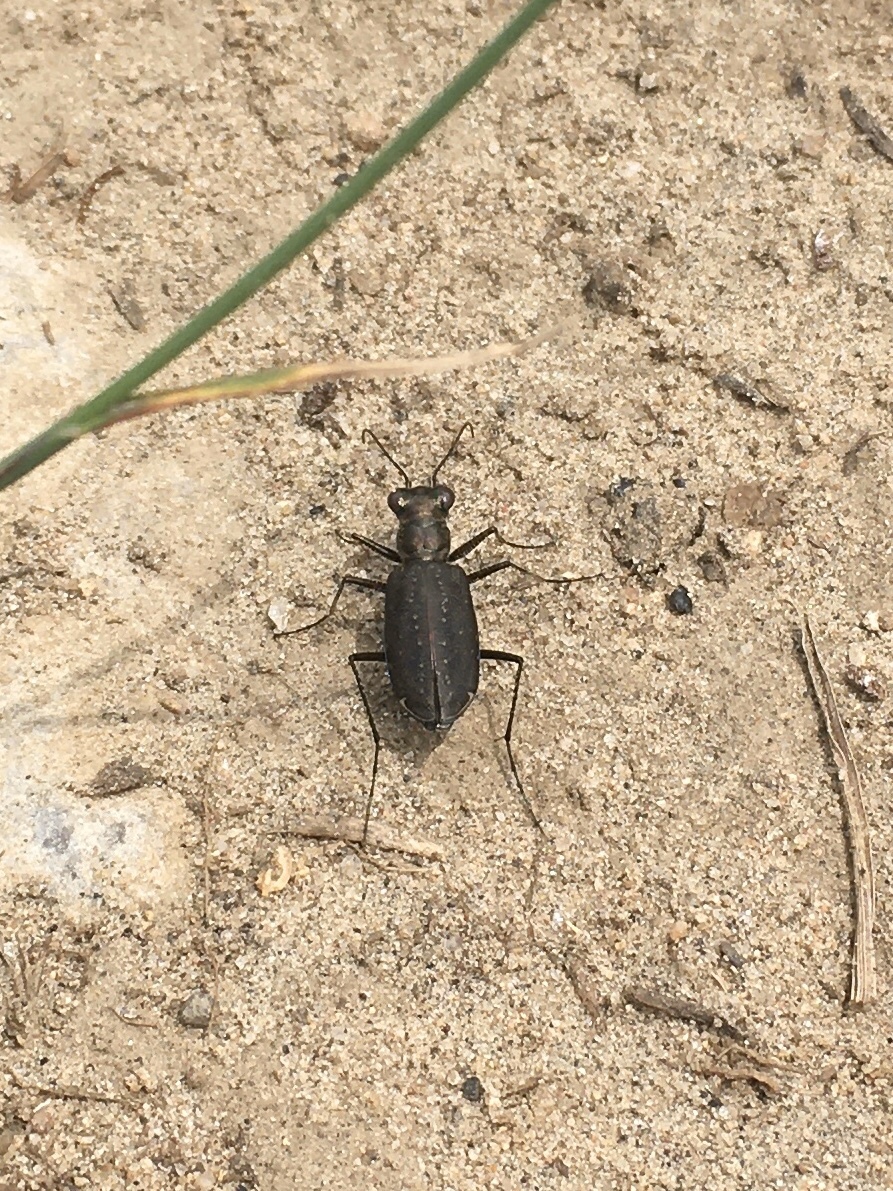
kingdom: Animalia
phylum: Arthropoda
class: Insecta
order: Coleoptera
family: Carabidae
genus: Cicindela
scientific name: Cicindela punctulata
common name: Punctured tiger beetle
